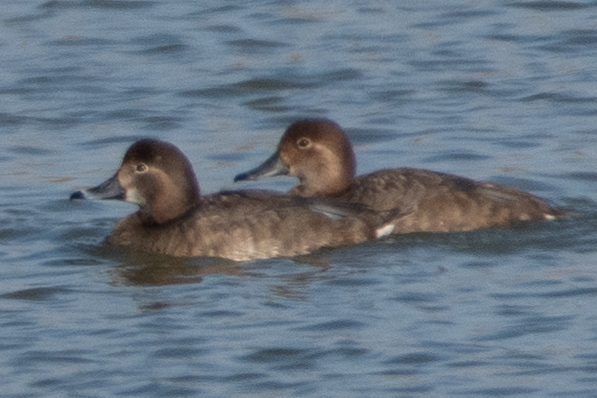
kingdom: Animalia
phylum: Chordata
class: Aves
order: Anseriformes
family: Anatidae
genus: Aythya
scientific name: Aythya americana
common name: Redhead
